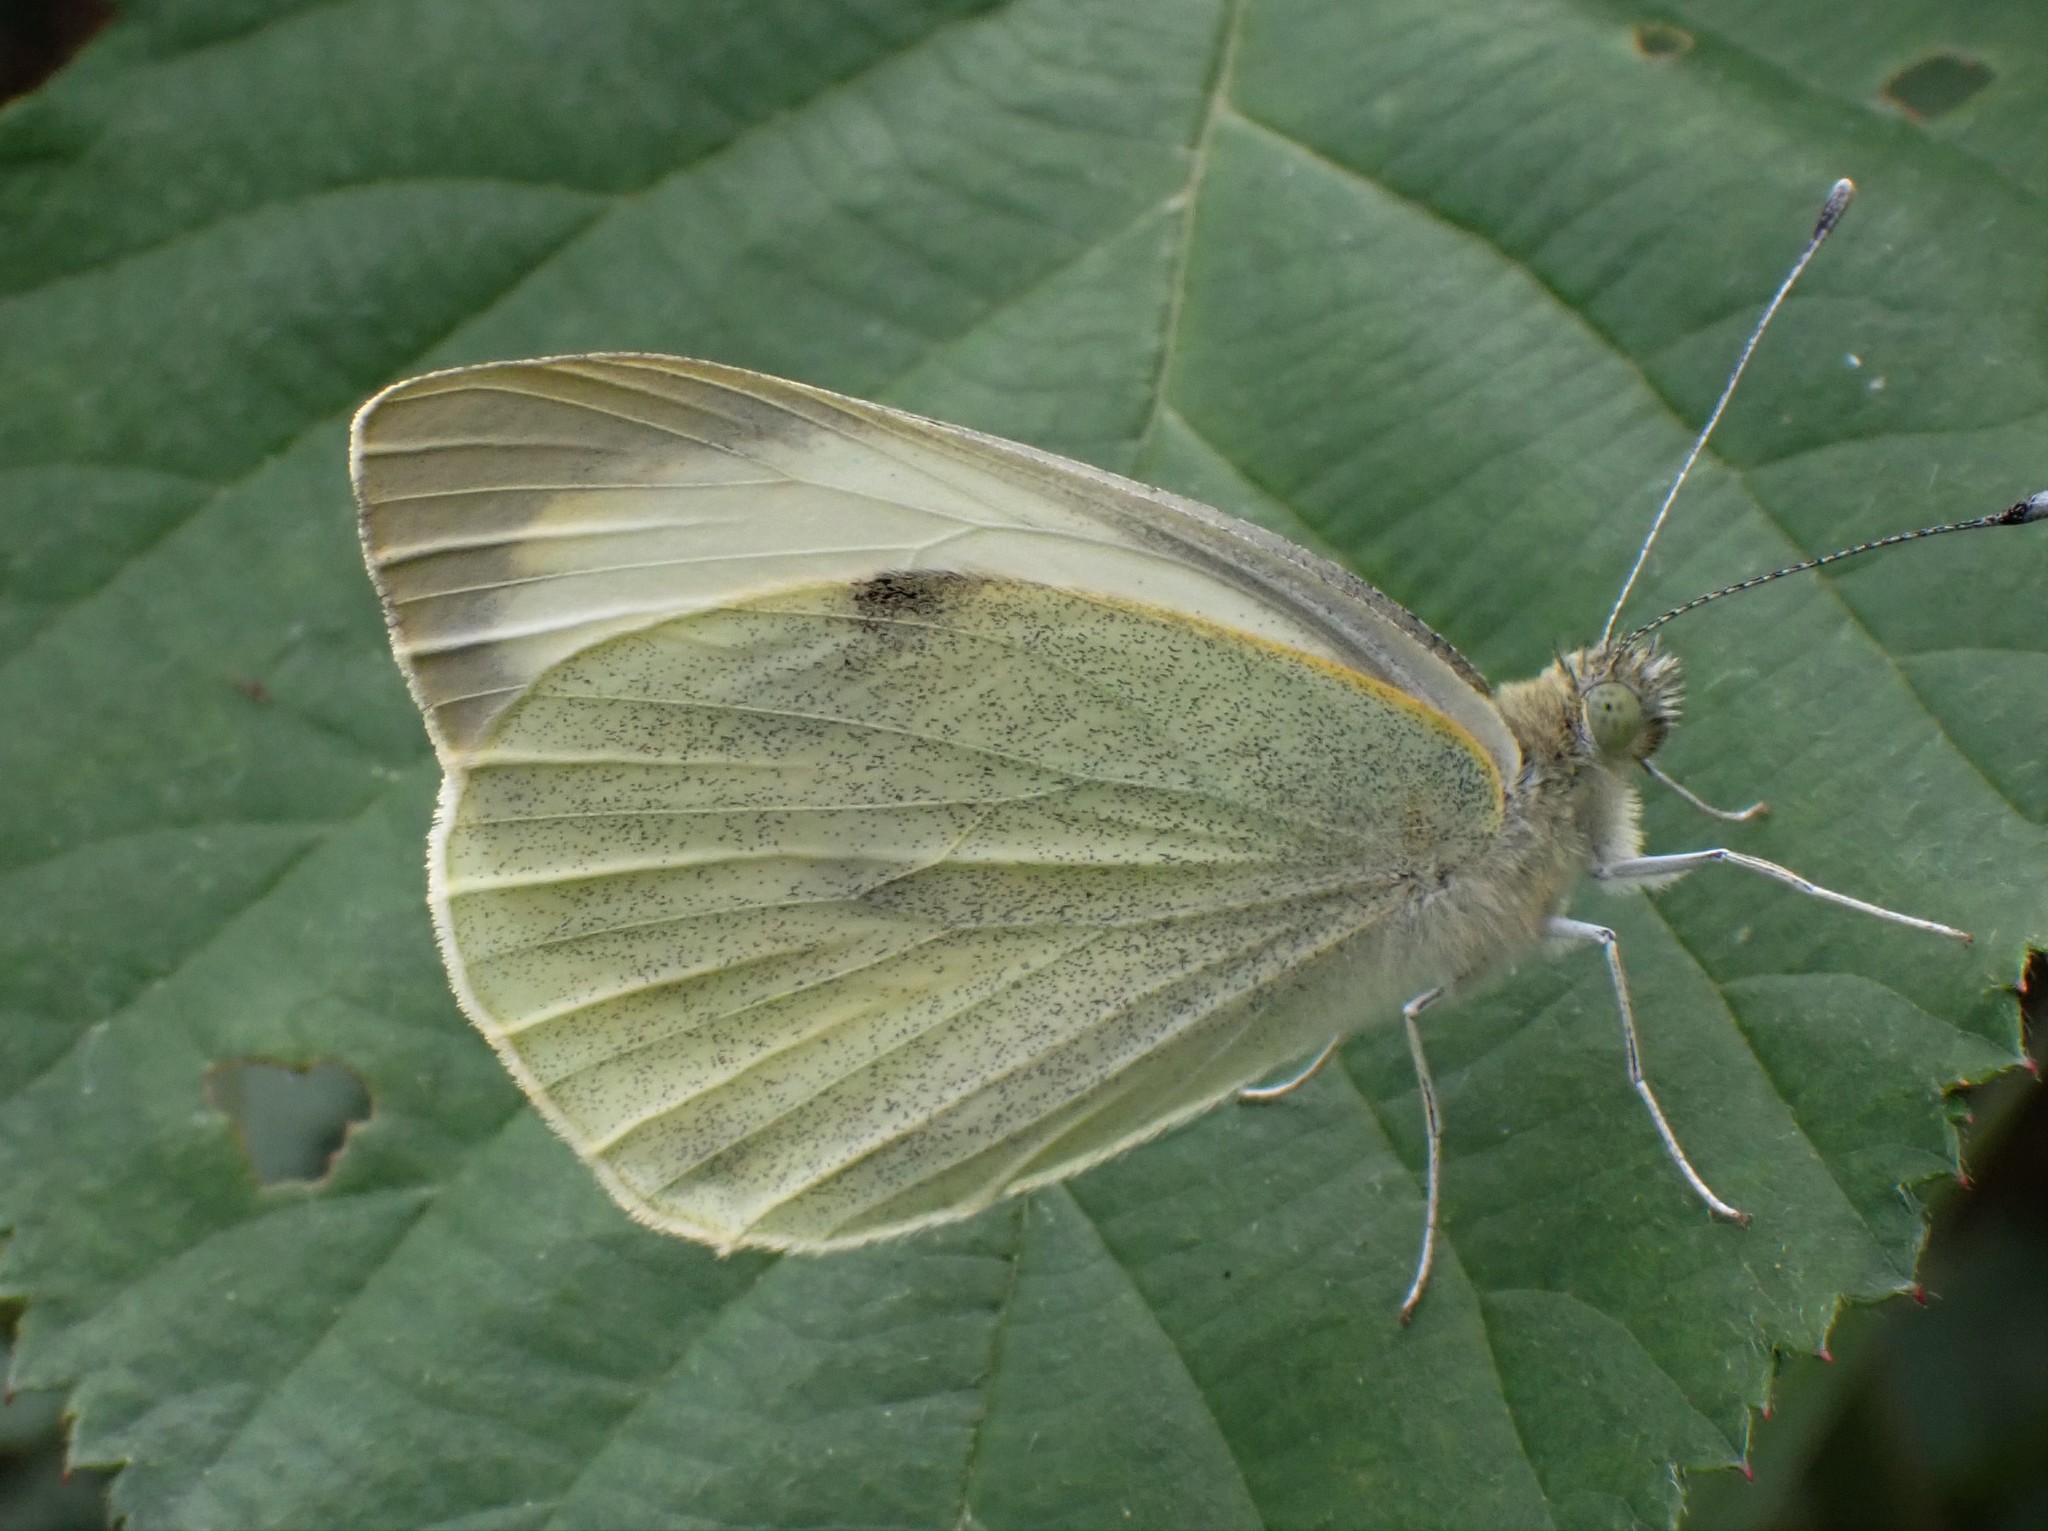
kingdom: Animalia
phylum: Arthropoda
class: Insecta
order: Lepidoptera
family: Pieridae
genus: Pieris
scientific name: Pieris brassicae
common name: Large white
